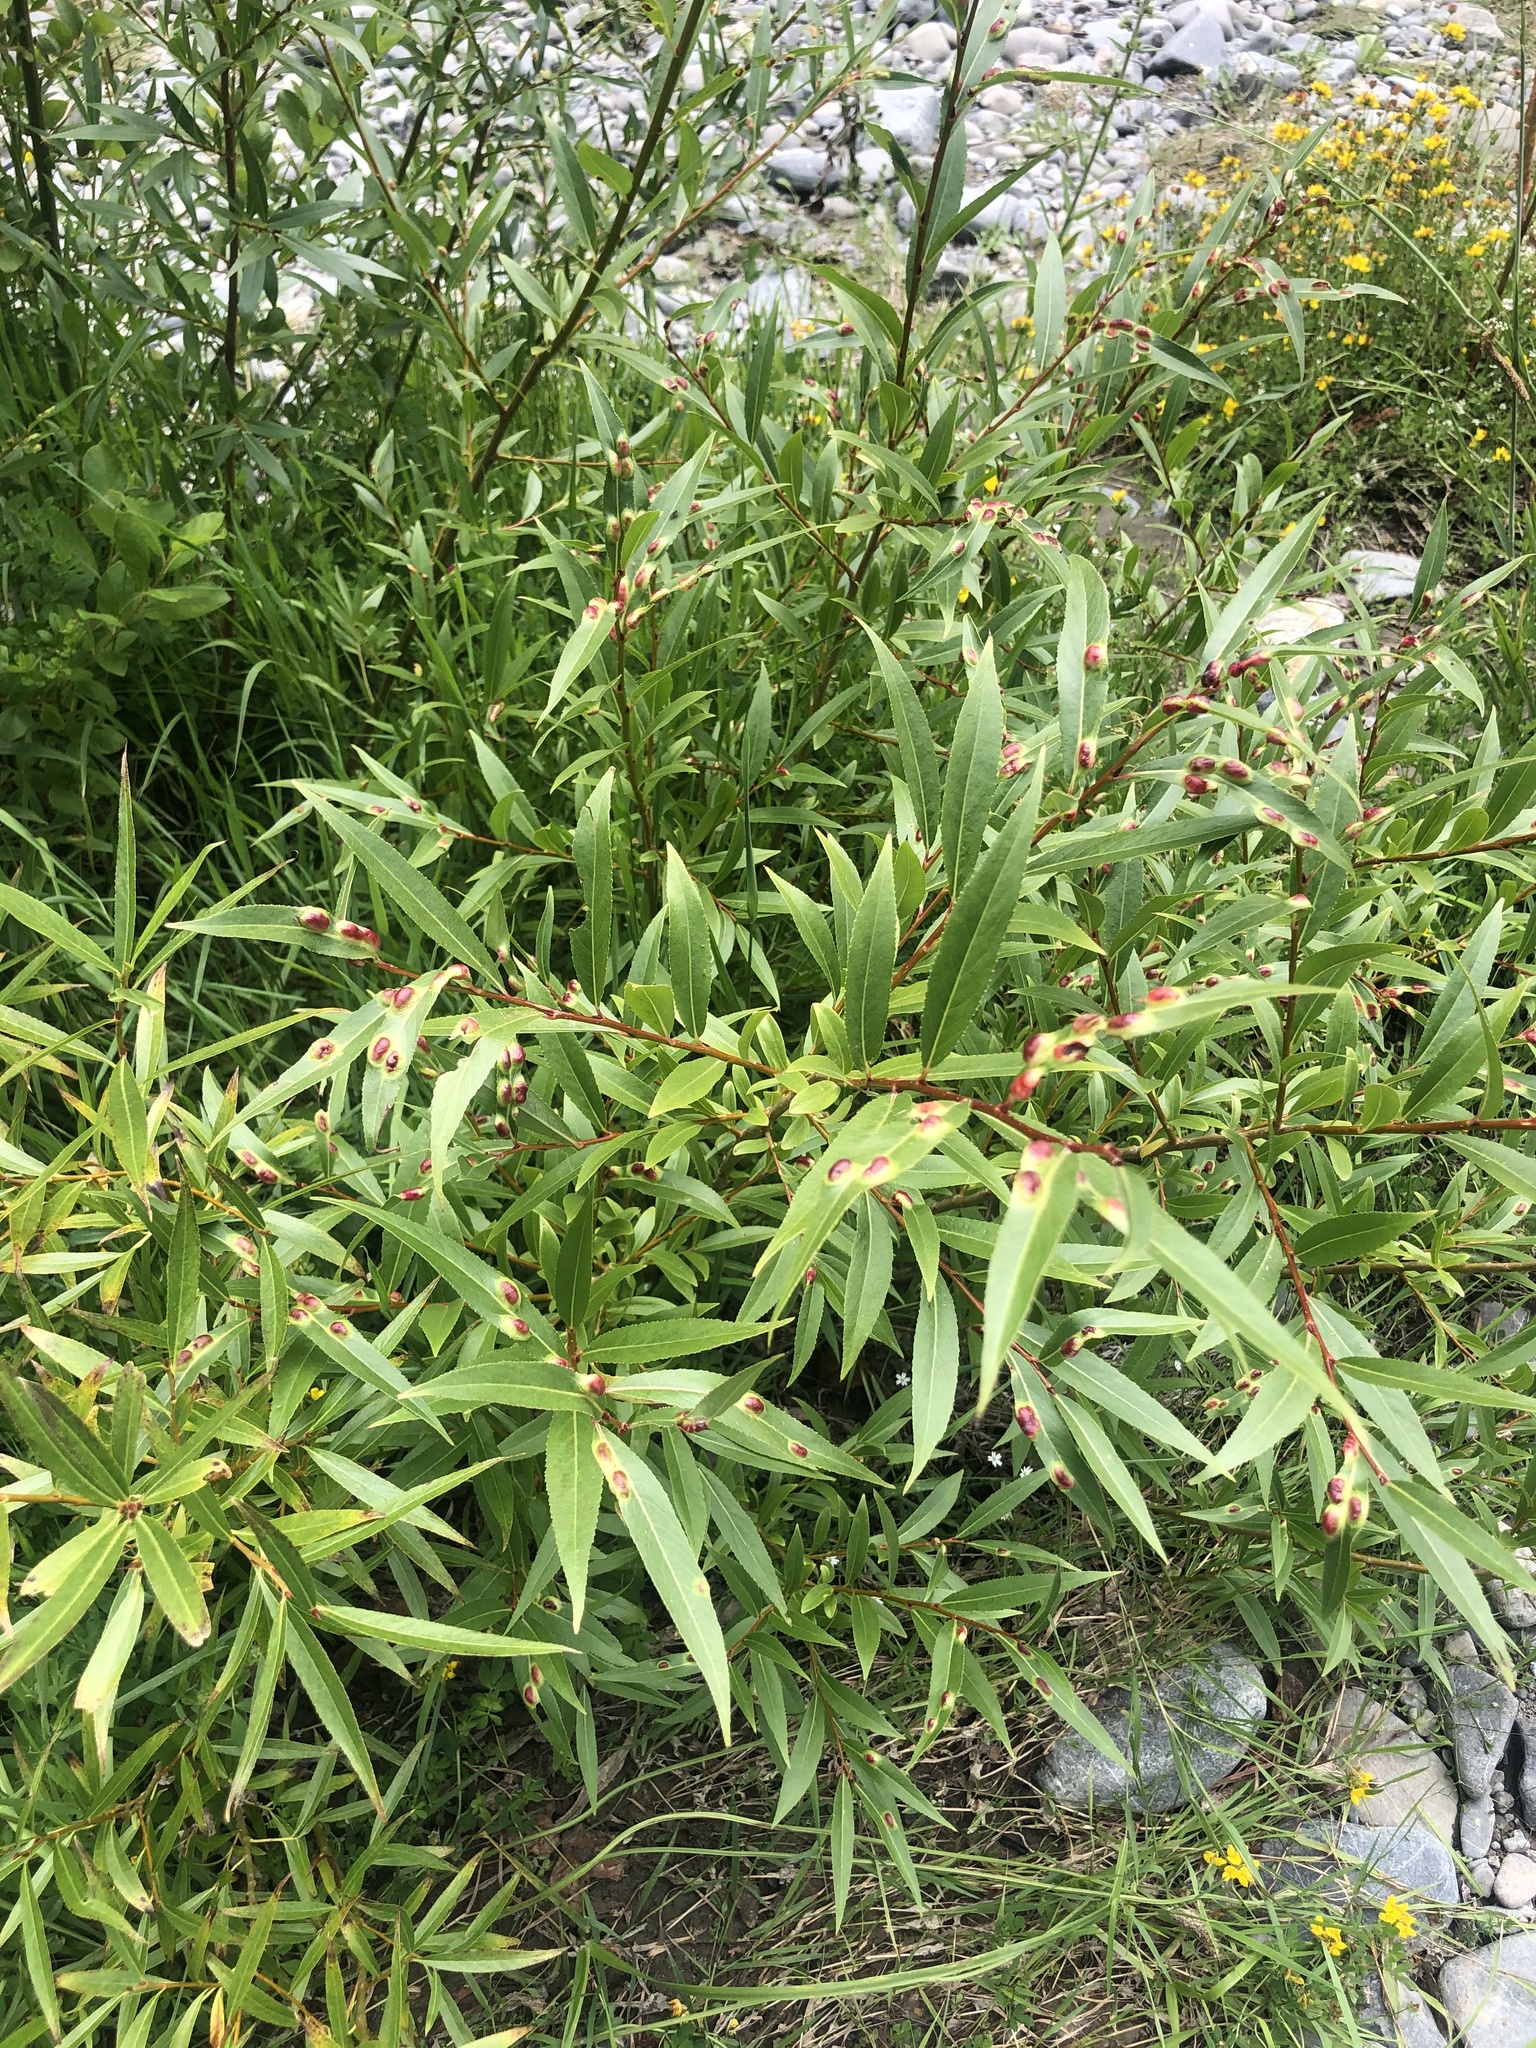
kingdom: Animalia
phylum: Arthropoda
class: Insecta
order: Hymenoptera
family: Tenthredinidae
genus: Pontania
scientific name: Pontania proxima
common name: Common sawfly
